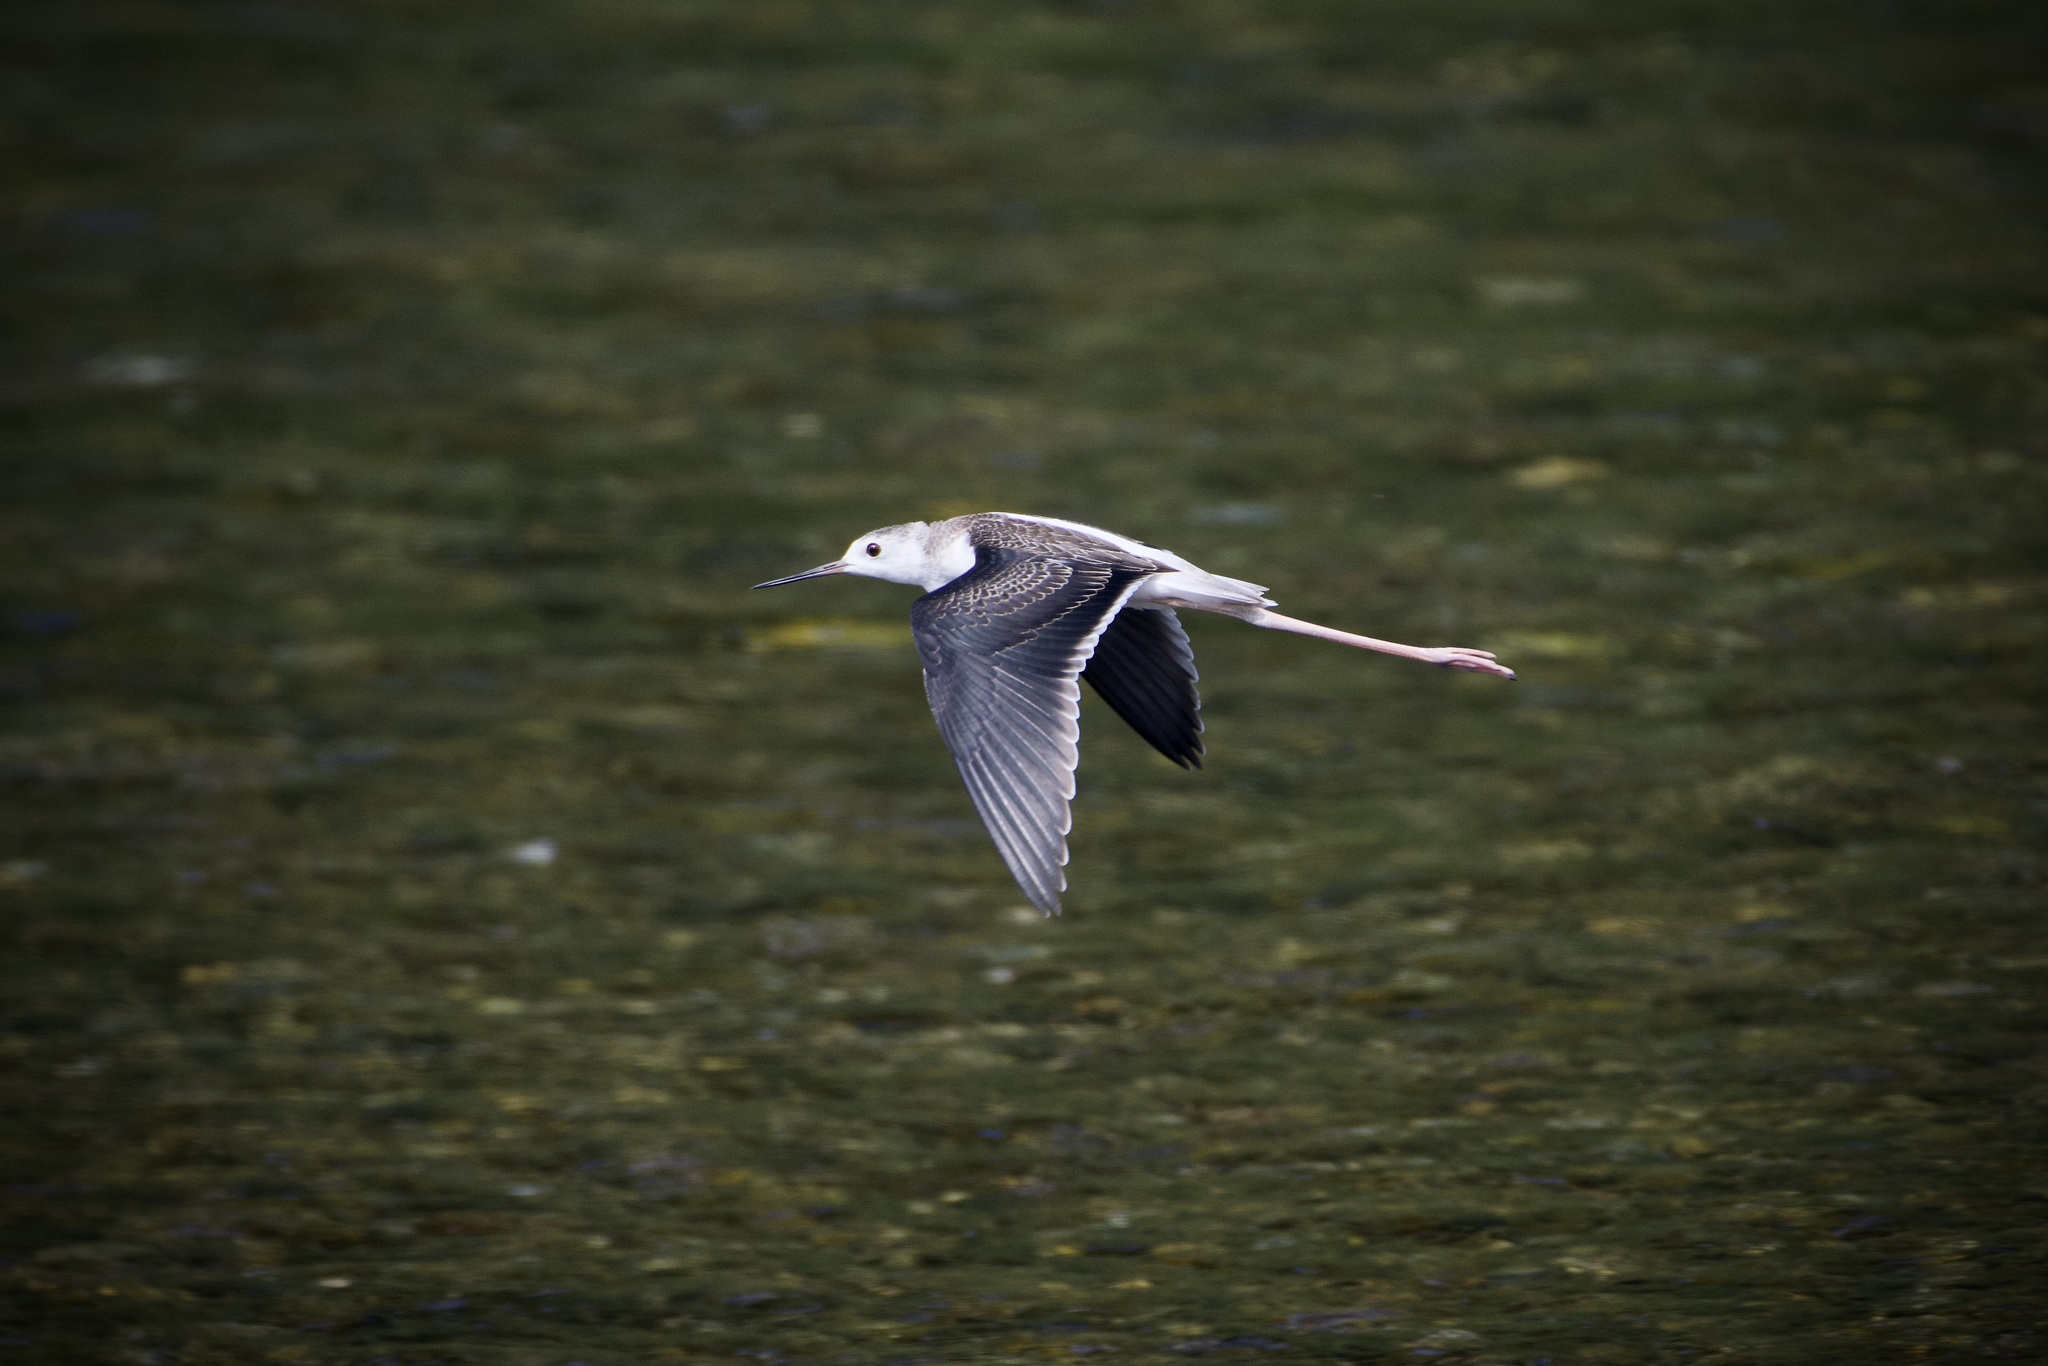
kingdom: Animalia
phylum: Chordata
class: Aves
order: Charadriiformes
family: Recurvirostridae
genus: Himantopus
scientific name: Himantopus himantopus
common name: Black-winged stilt
